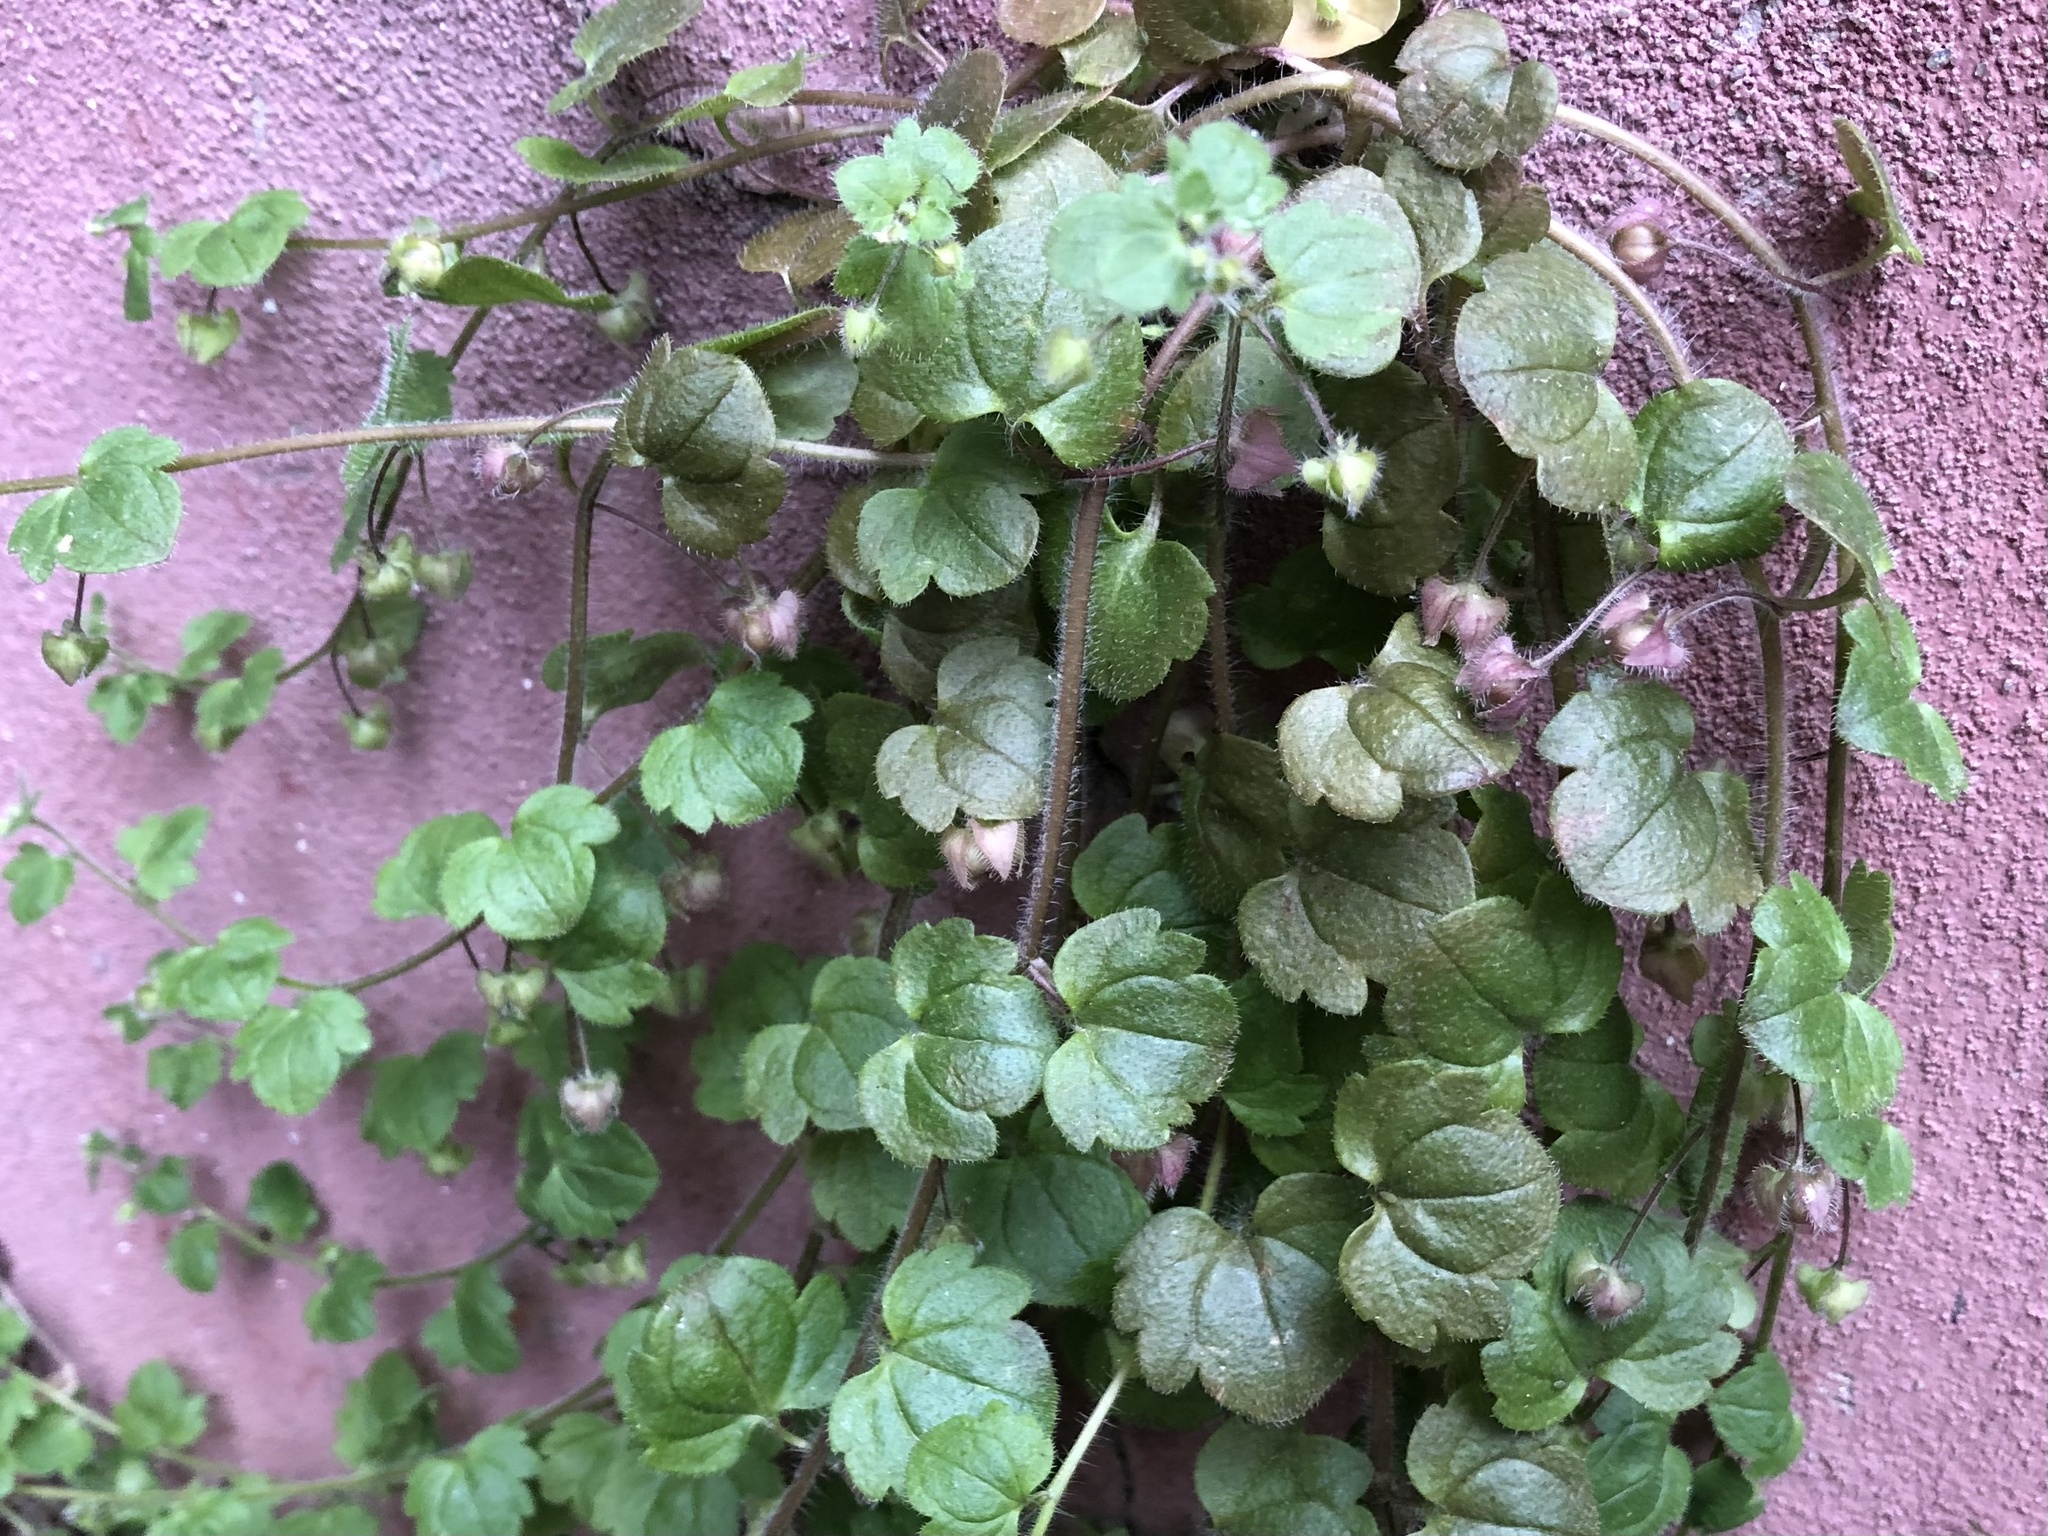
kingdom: Plantae
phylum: Tracheophyta
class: Magnoliopsida
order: Lamiales
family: Plantaginaceae
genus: Veronica
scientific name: Veronica sublobata
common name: False ivy-leaved speedwell
